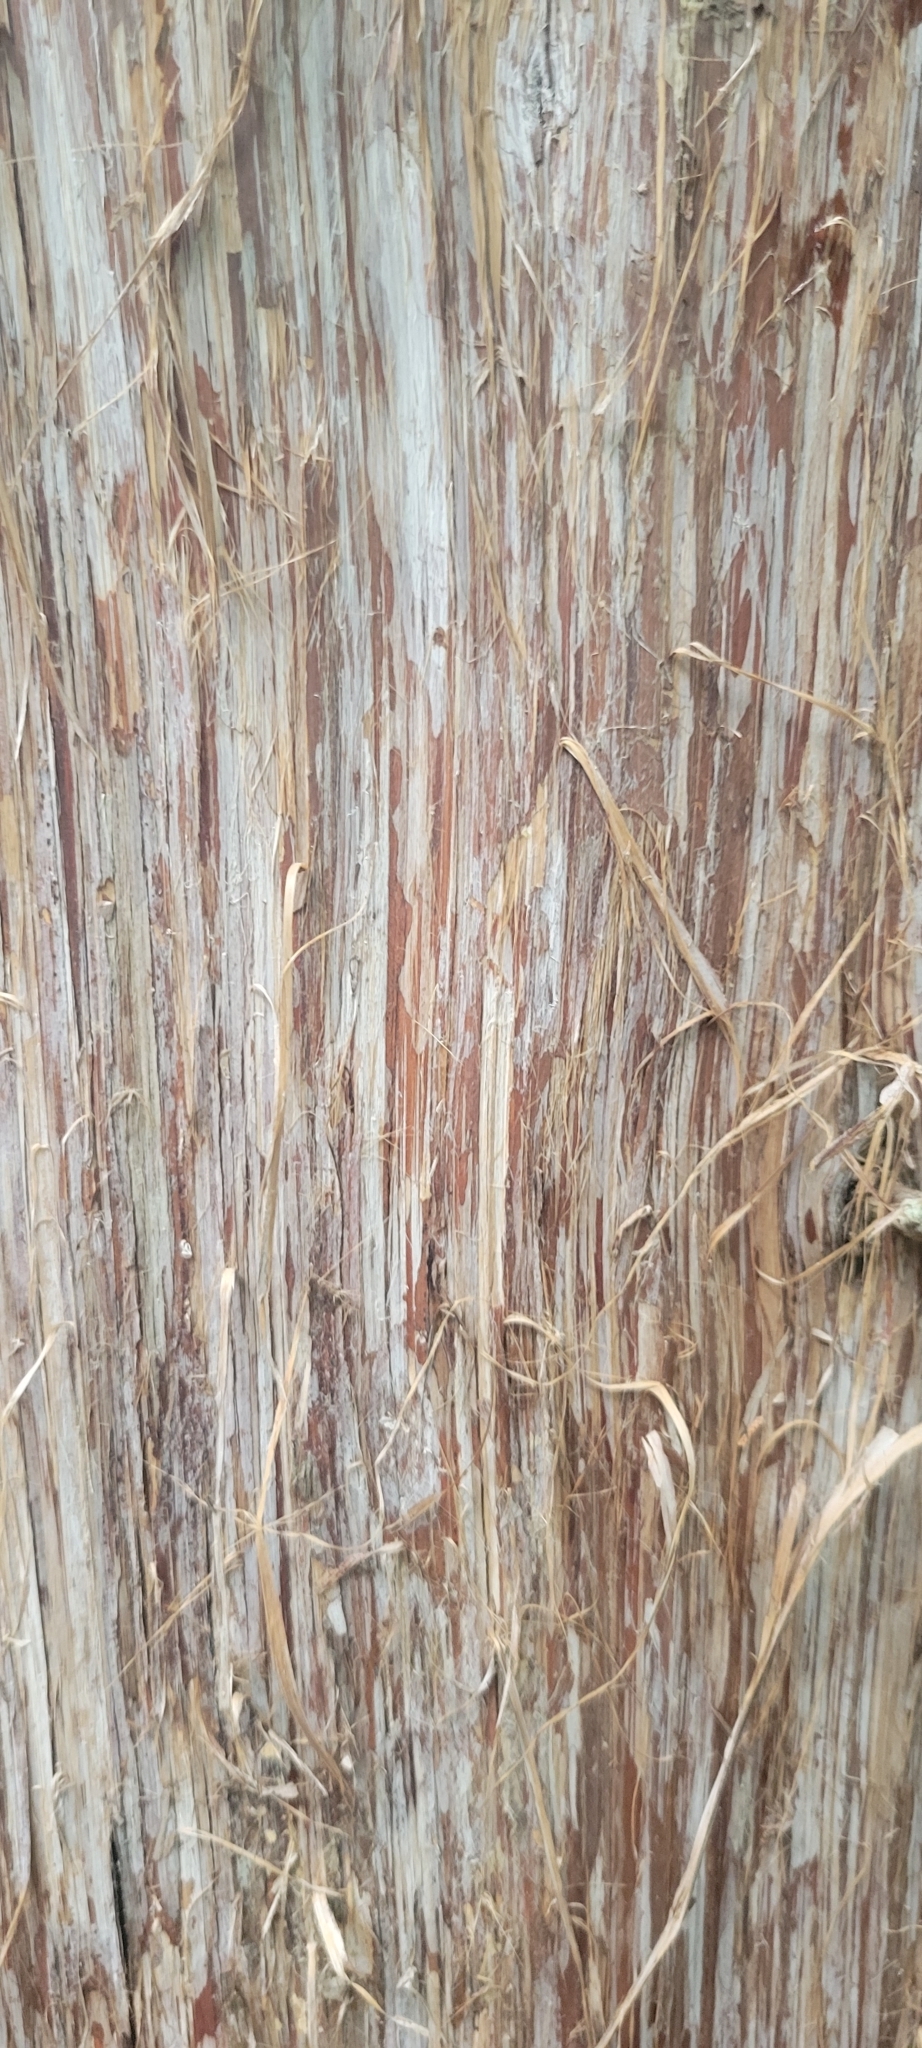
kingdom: Plantae
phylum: Tracheophyta
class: Pinopsida
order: Pinales
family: Cupressaceae
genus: Juniperus
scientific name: Juniperus virginiana
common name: Red juniper
